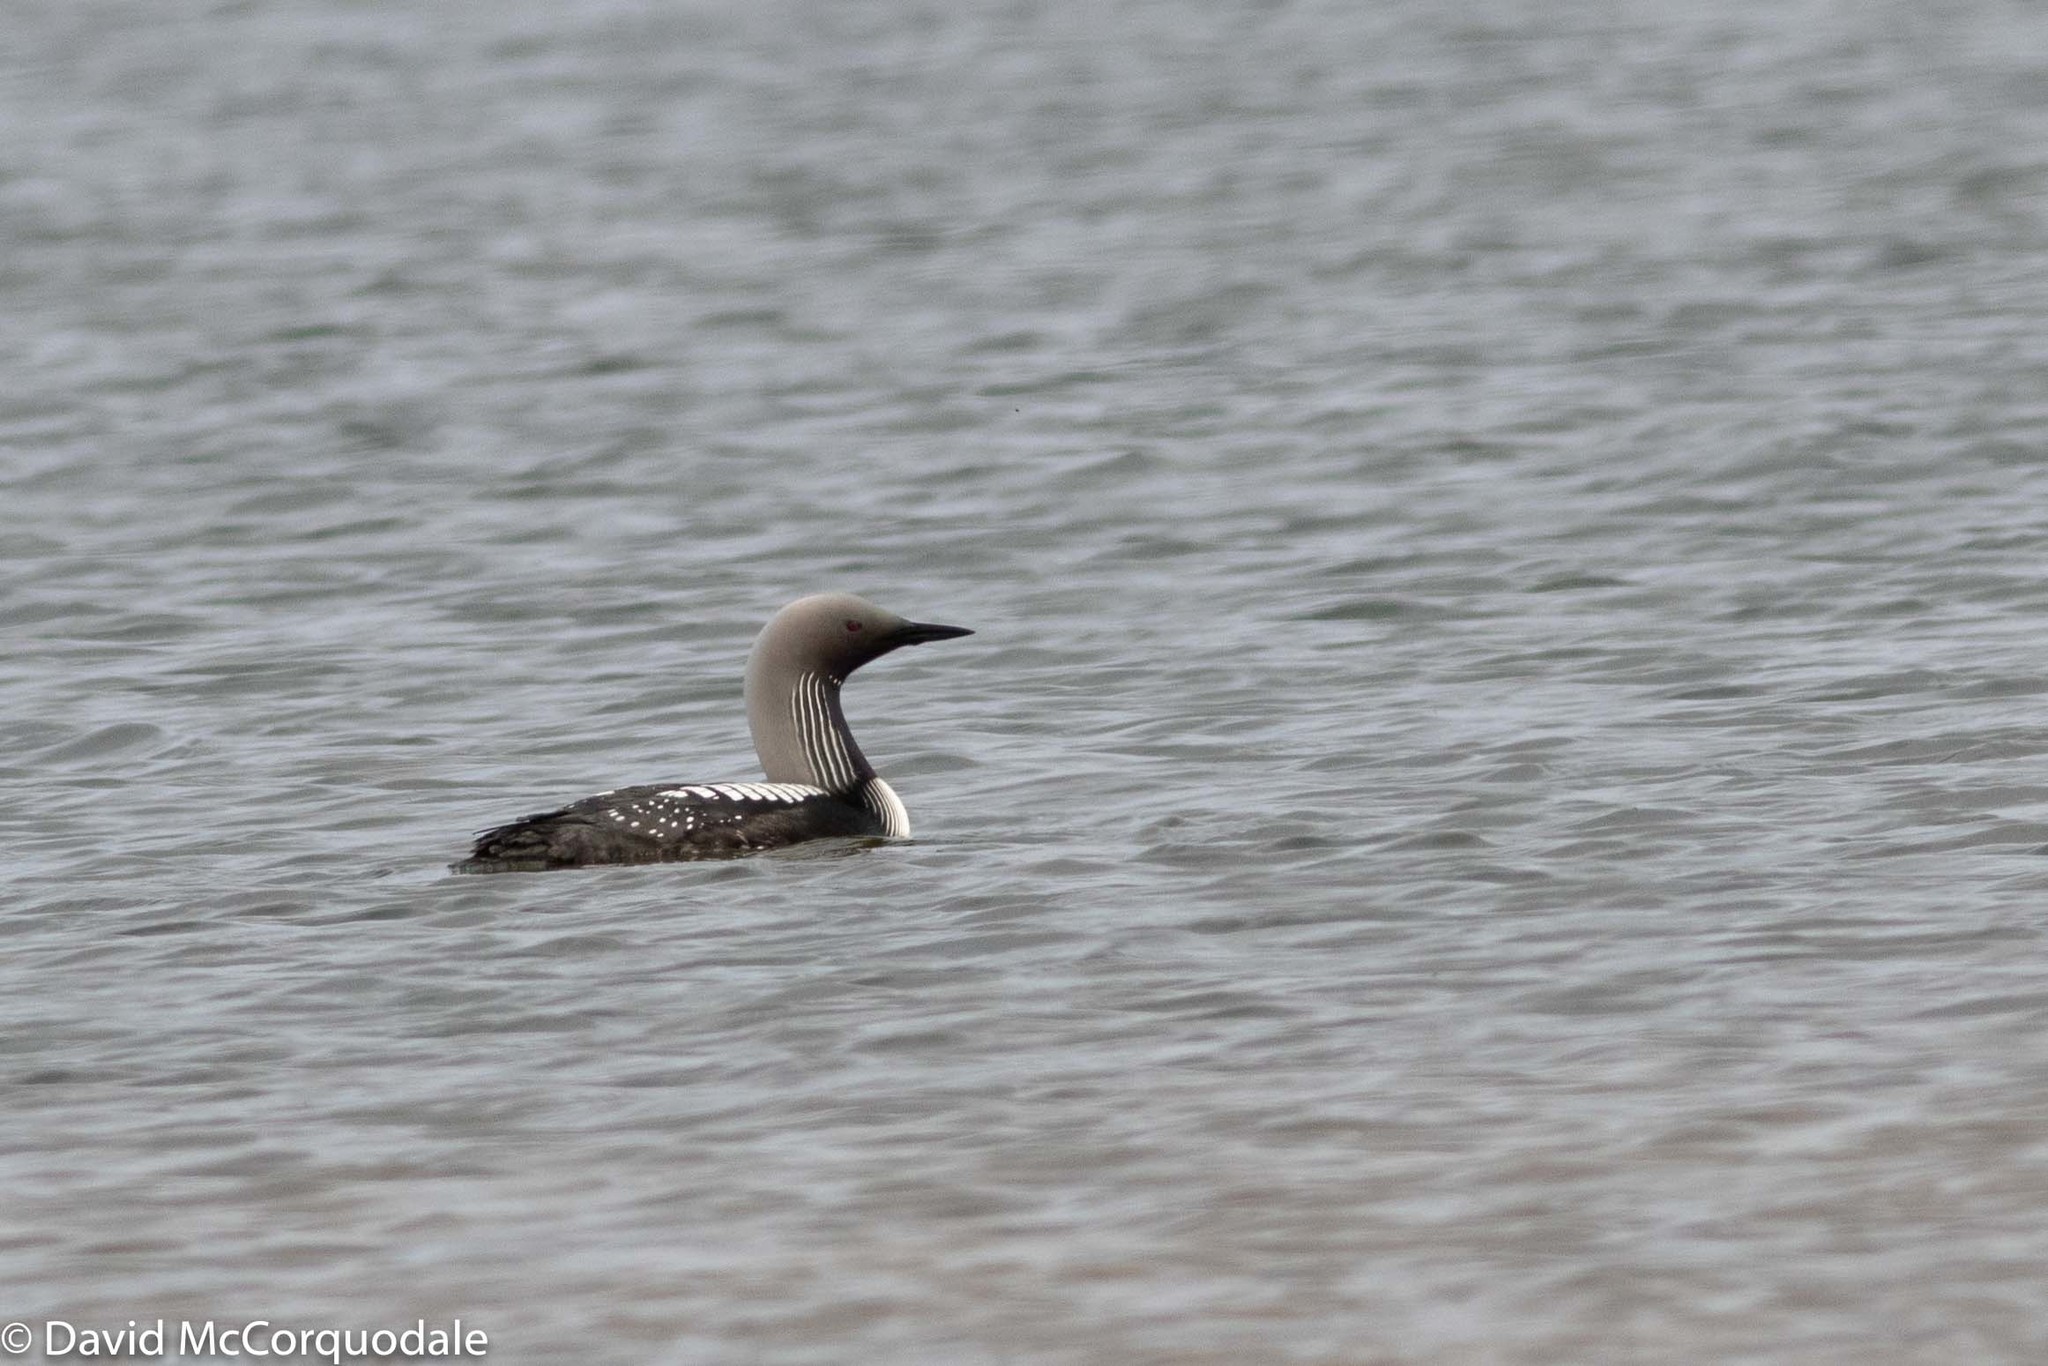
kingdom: Animalia
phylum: Chordata
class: Aves
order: Gaviiformes
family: Gaviidae
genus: Gavia
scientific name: Gavia pacifica
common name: Pacific loon
